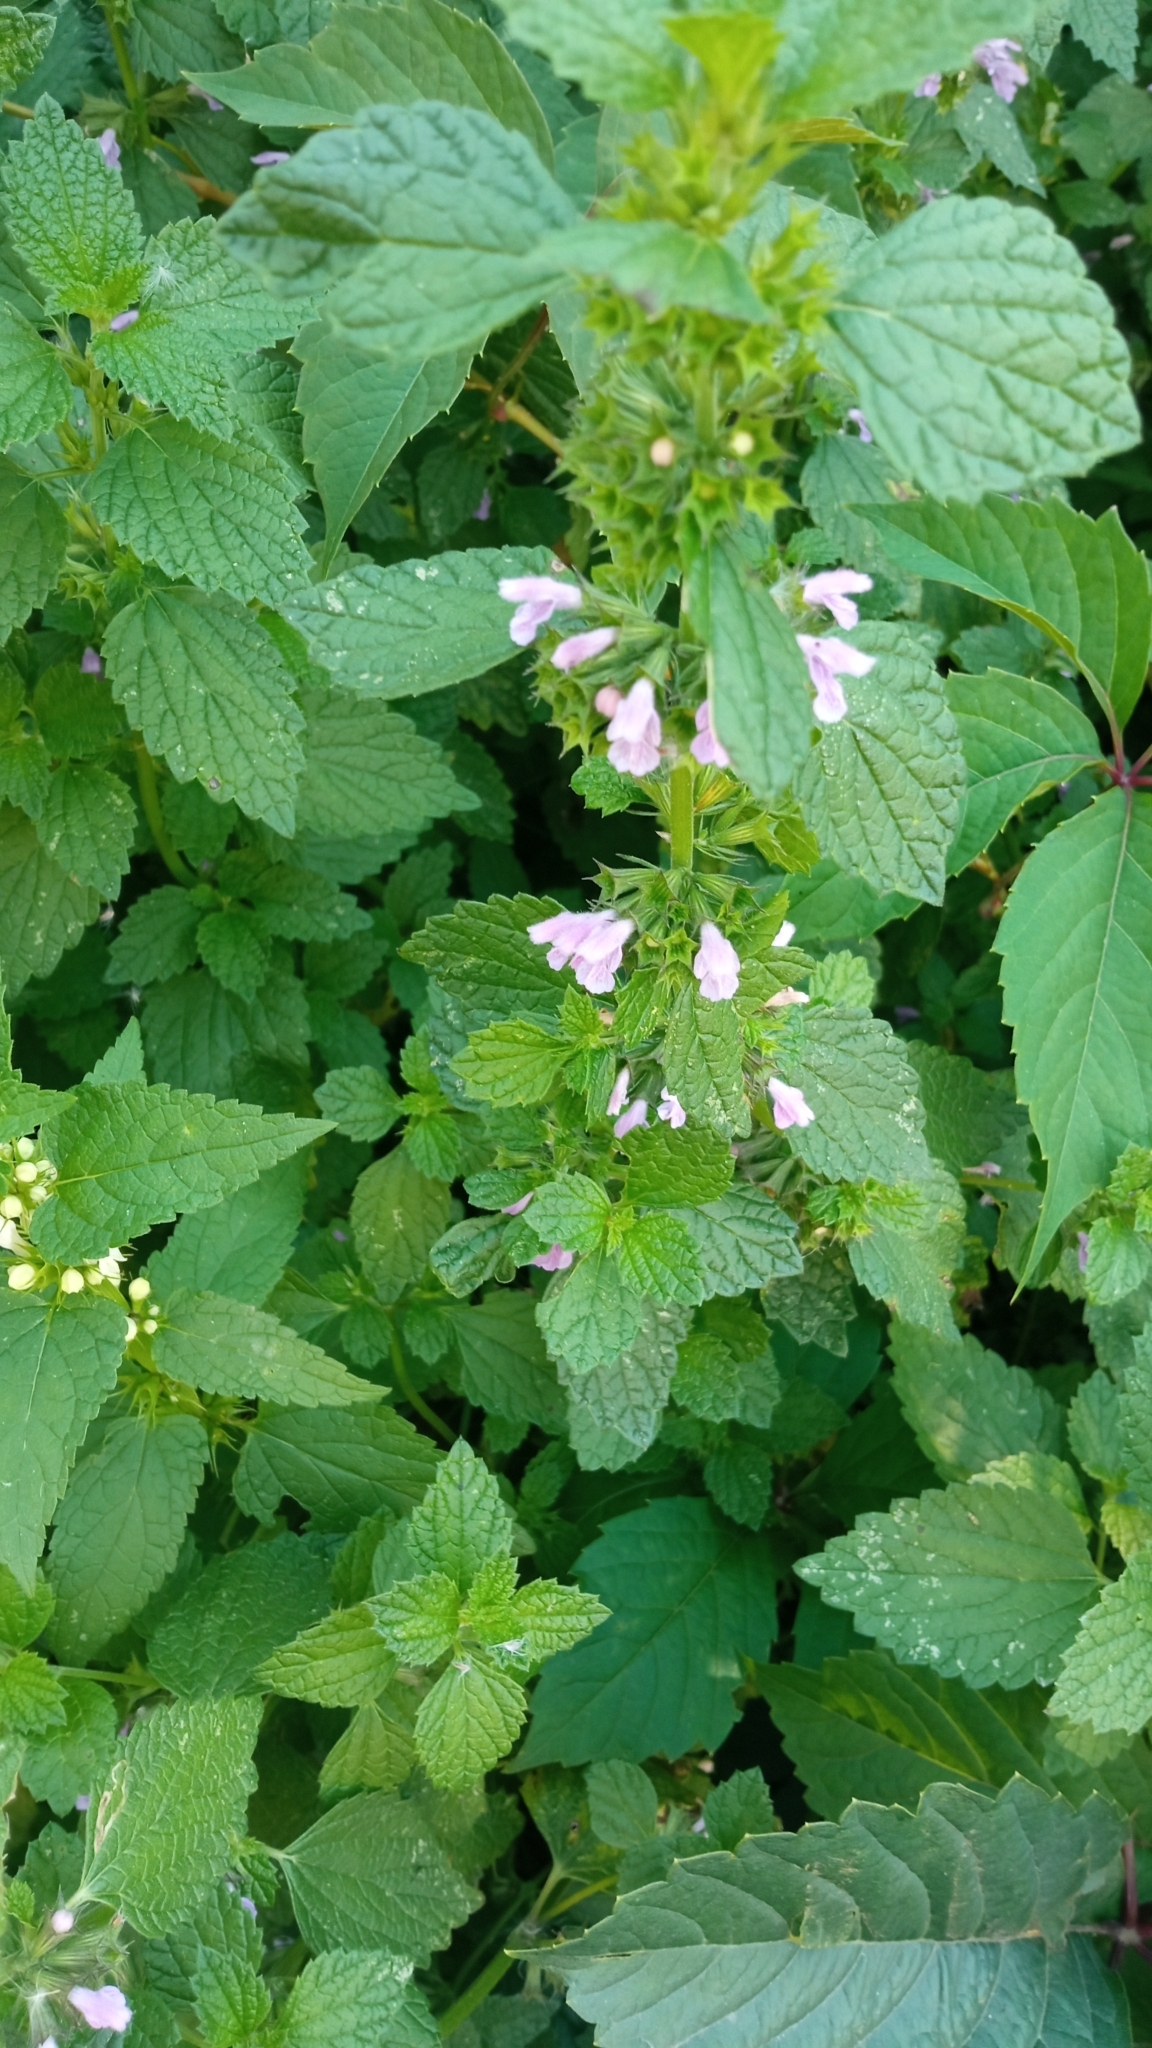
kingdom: Plantae
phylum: Tracheophyta
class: Magnoliopsida
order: Lamiales
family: Lamiaceae
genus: Ballota
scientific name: Ballota nigra
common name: Black horehound
